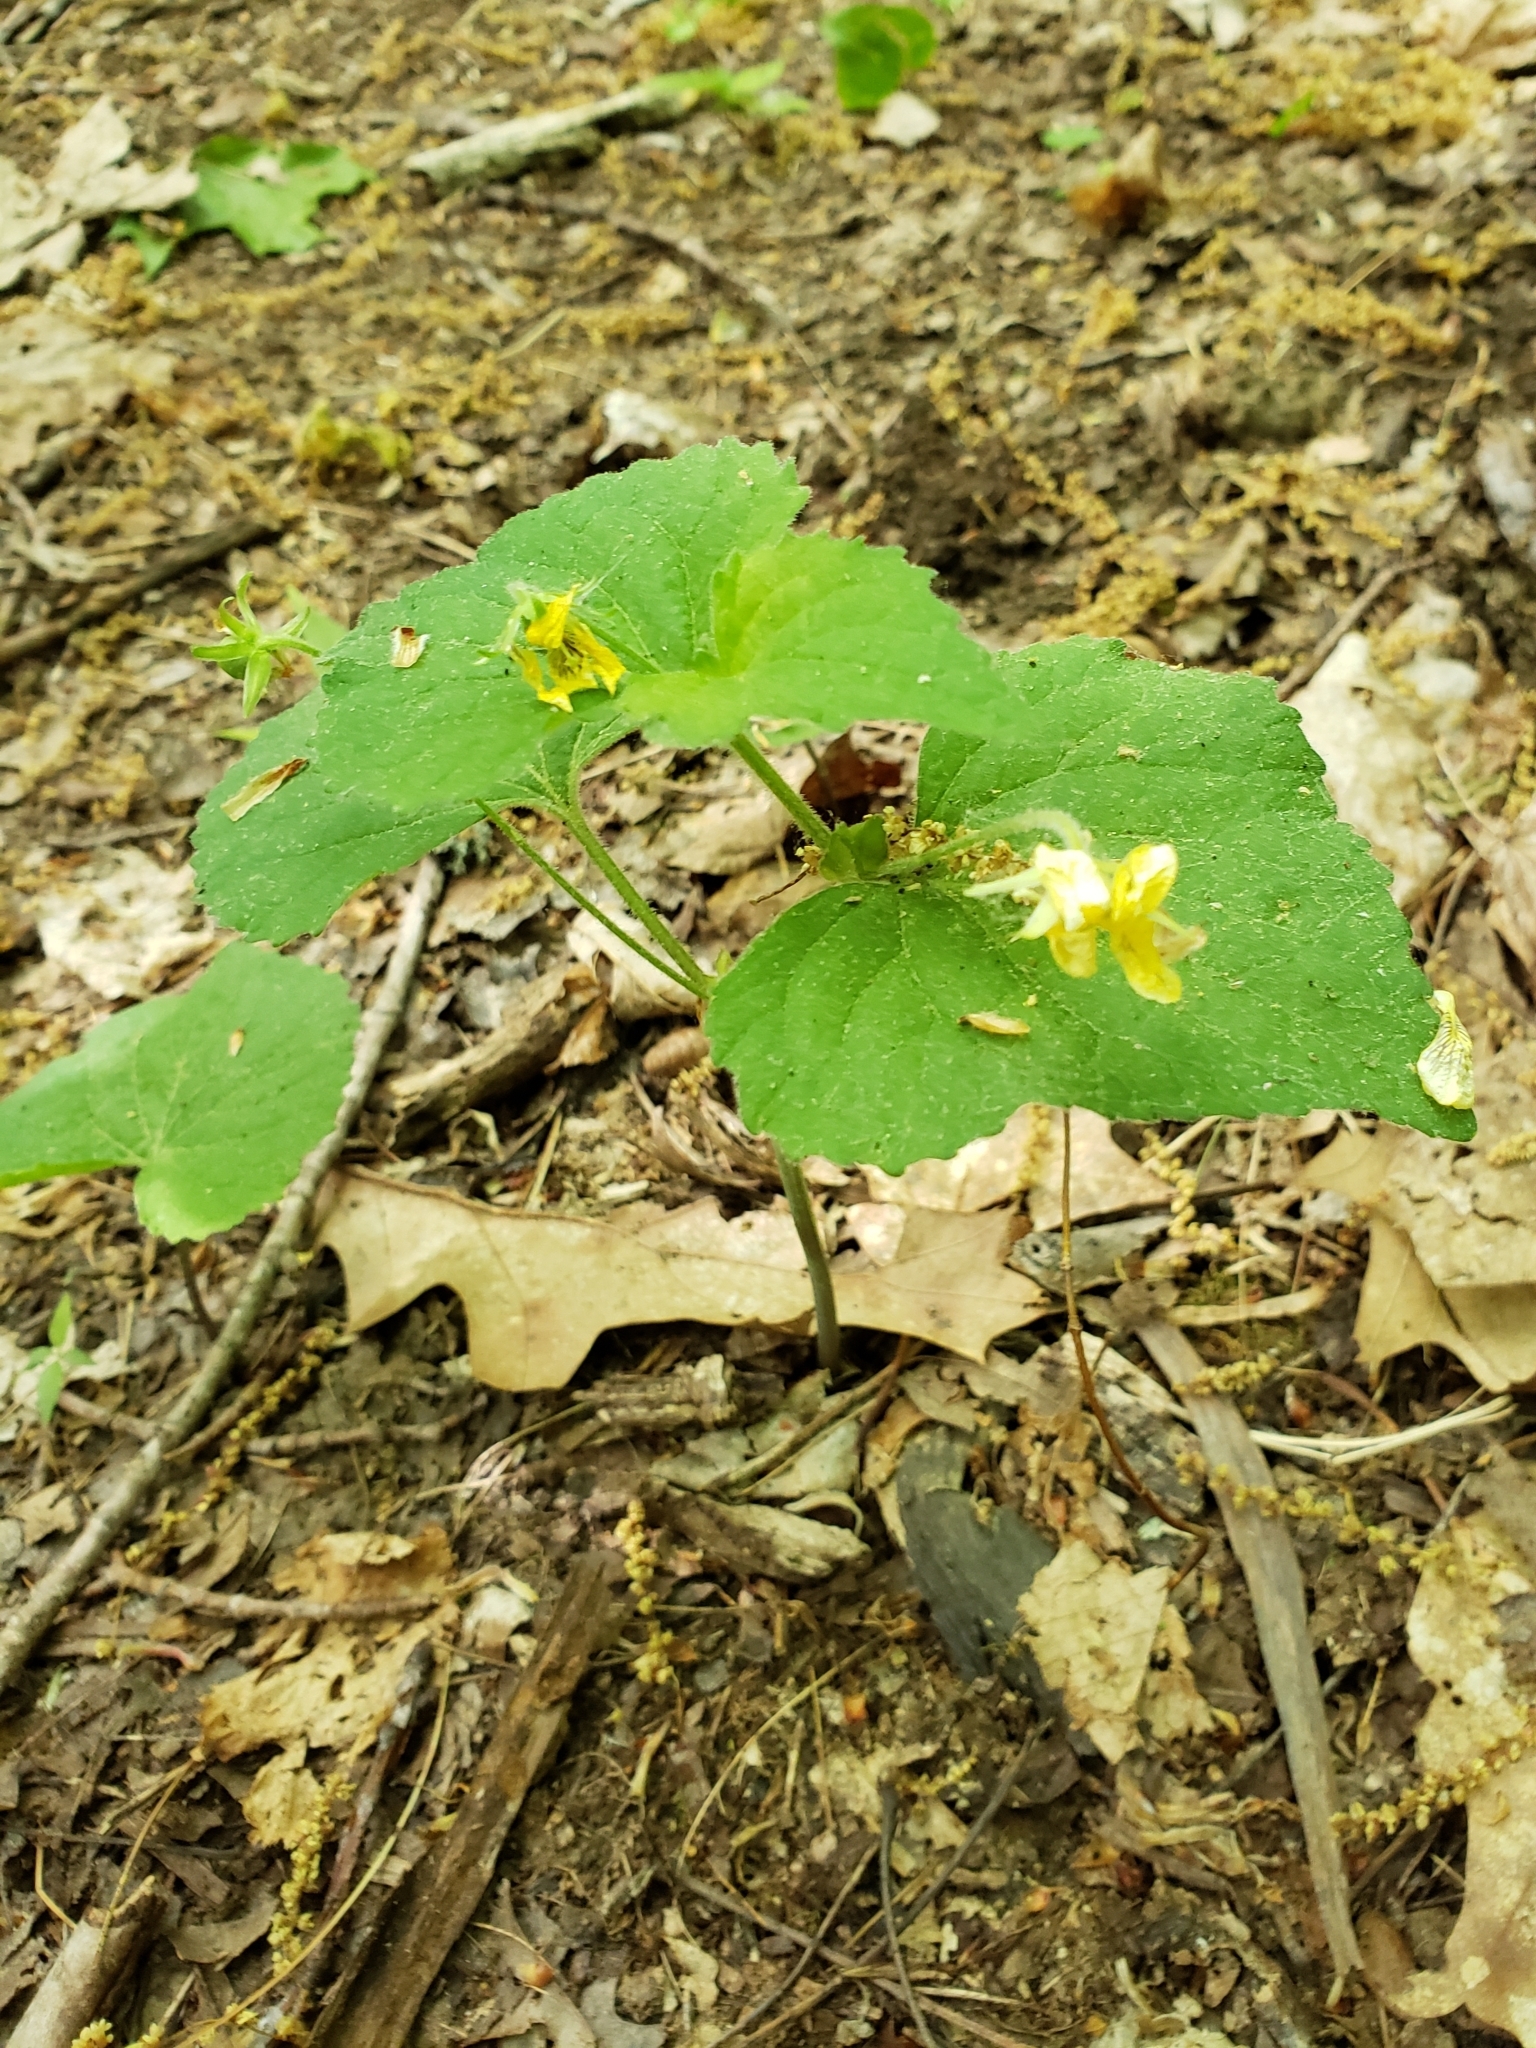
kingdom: Plantae
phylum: Tracheophyta
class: Magnoliopsida
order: Malpighiales
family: Violaceae
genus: Viola
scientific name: Viola pubescens
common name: Yellow forest violet
